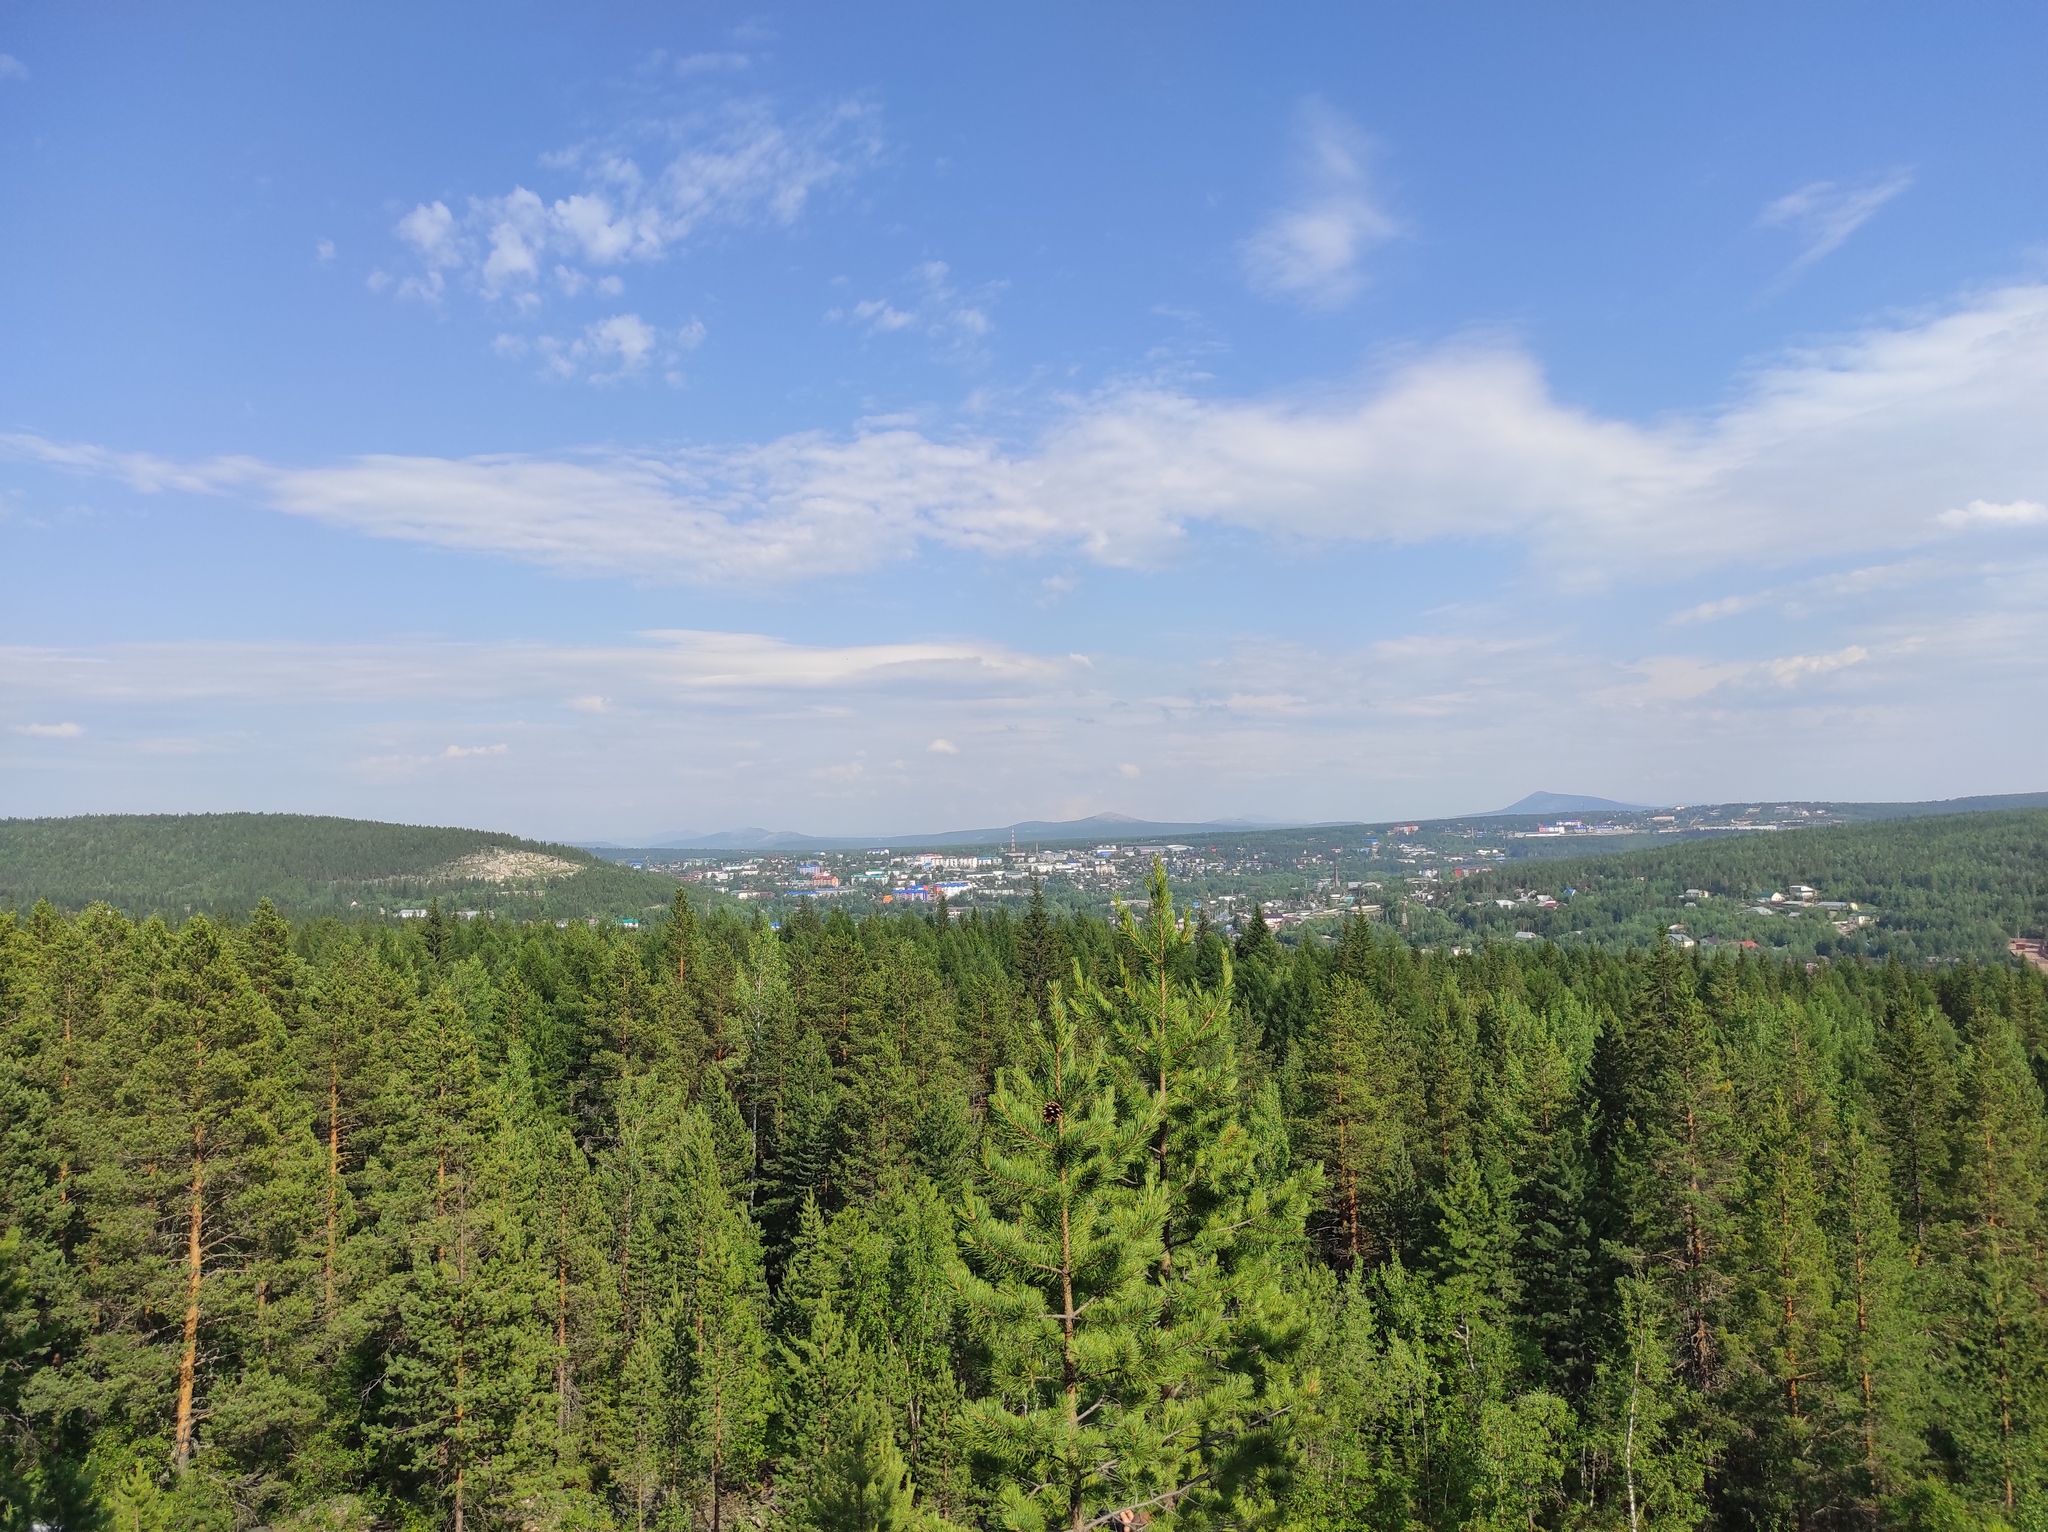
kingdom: Plantae
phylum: Tracheophyta
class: Pinopsida
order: Pinales
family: Pinaceae
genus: Pinus
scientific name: Pinus sylvestris
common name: Scots pine
